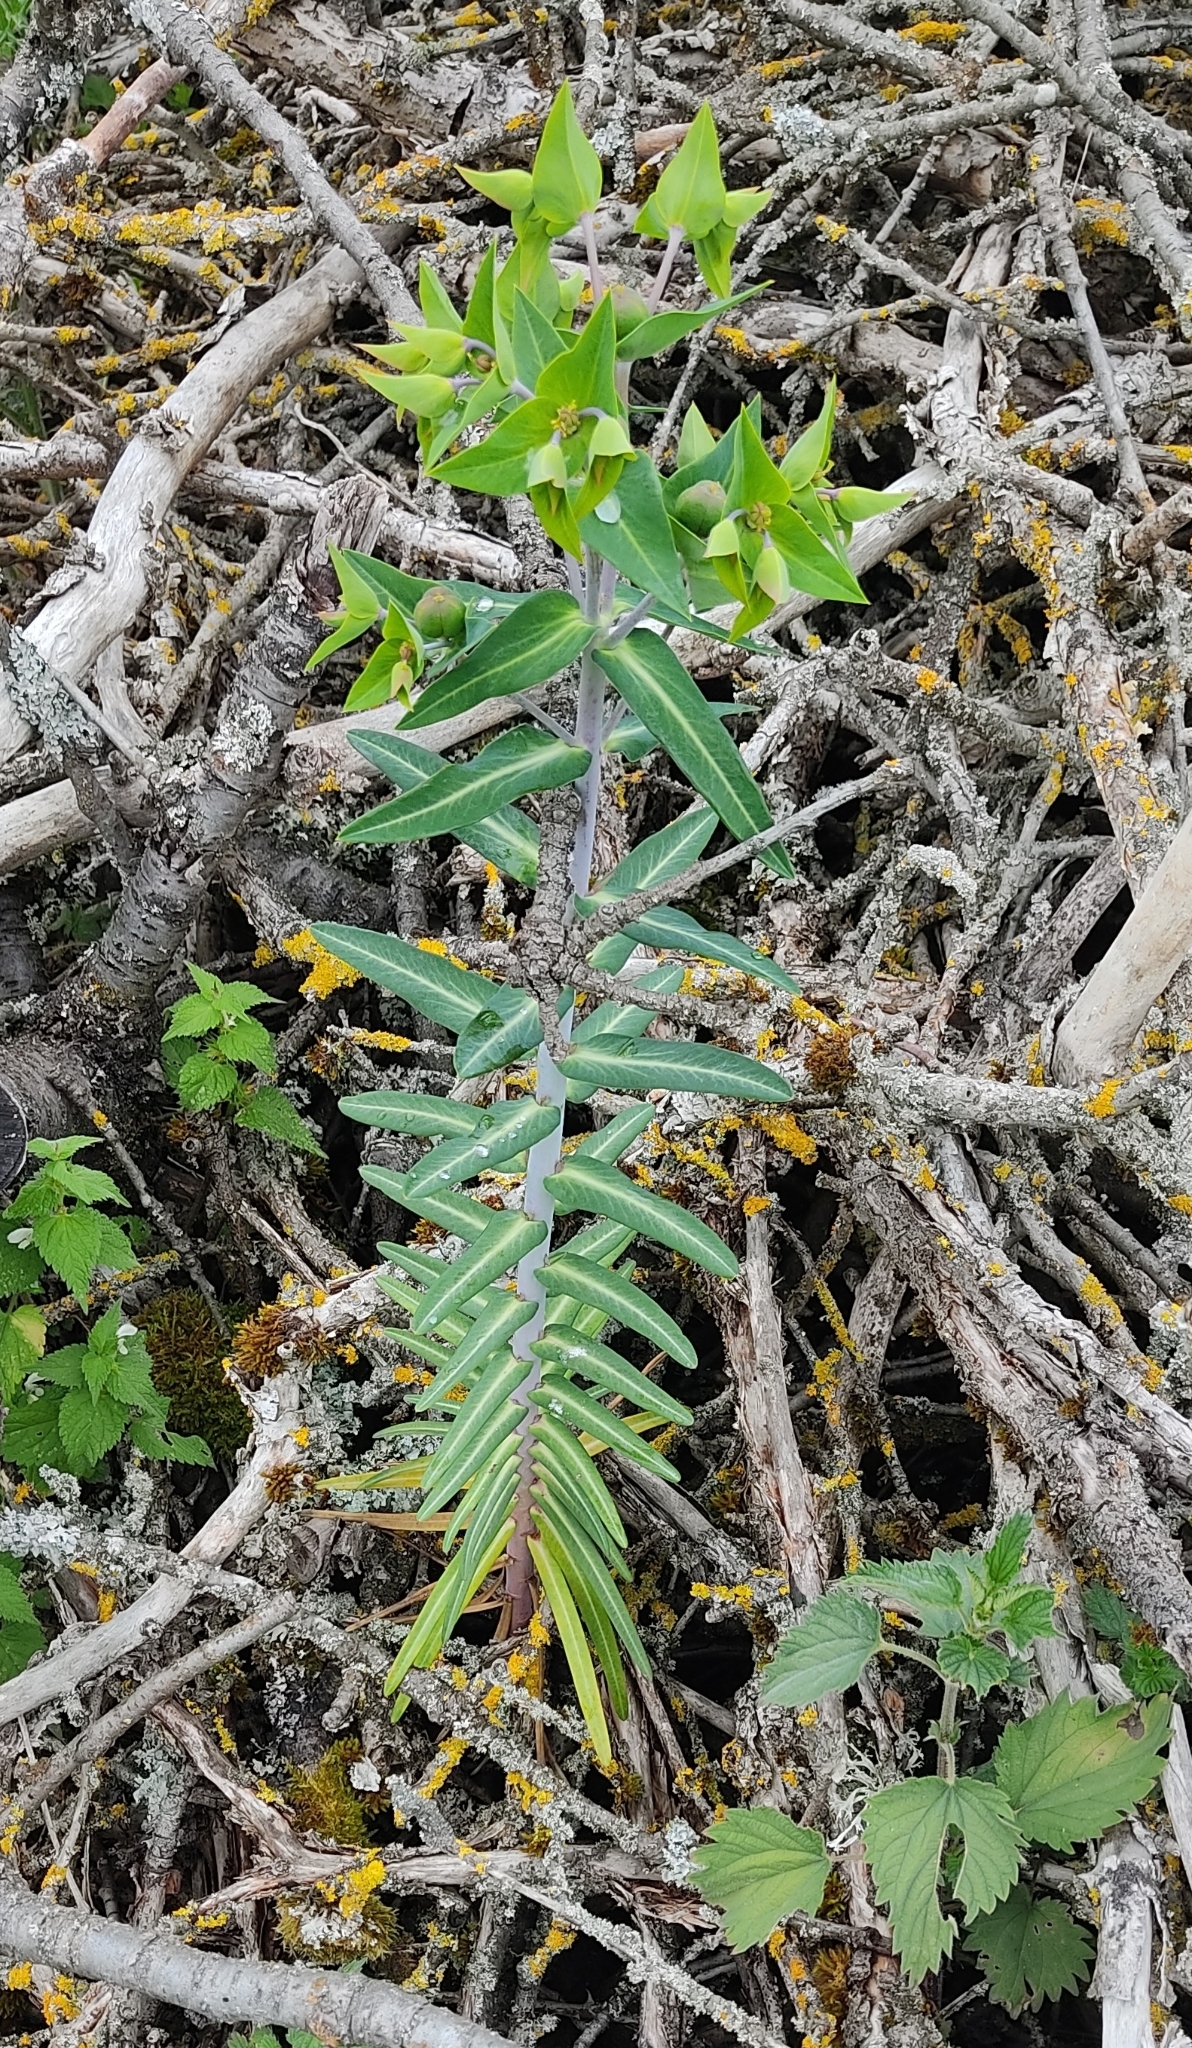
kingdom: Plantae
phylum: Tracheophyta
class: Magnoliopsida
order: Malpighiales
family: Euphorbiaceae
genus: Euphorbia
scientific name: Euphorbia lathyris
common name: Caper spurge
